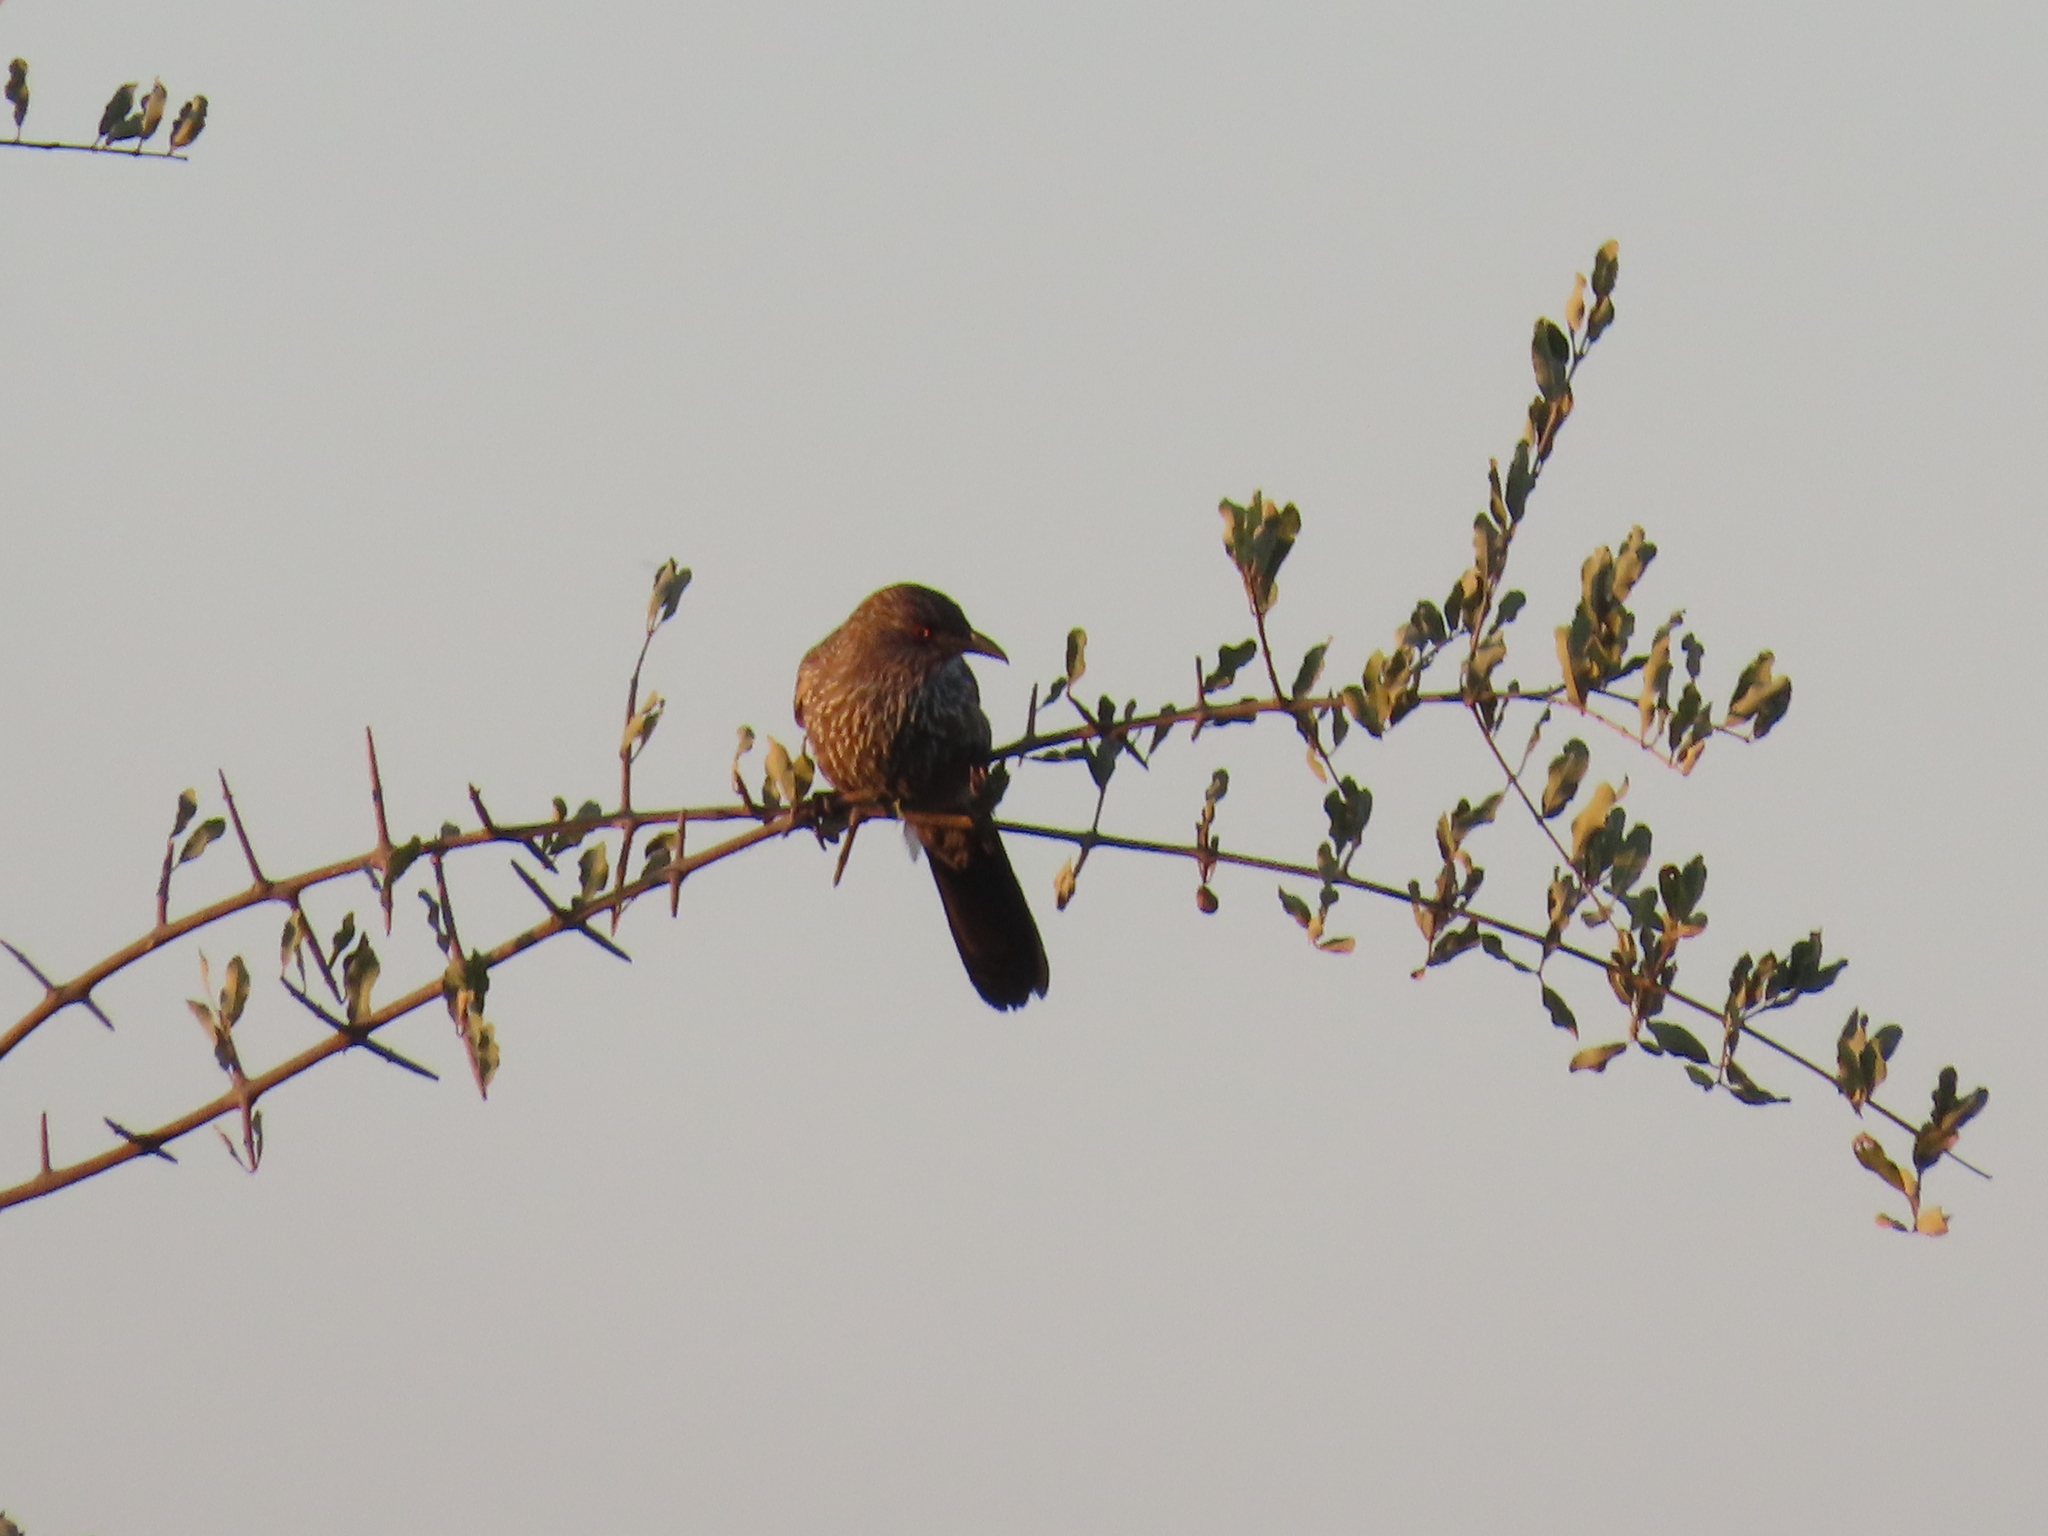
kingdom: Animalia
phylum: Chordata
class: Aves
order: Passeriformes
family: Leiothrichidae
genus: Turdoides
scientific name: Turdoides jardineii
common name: Arrow-marked babbler
